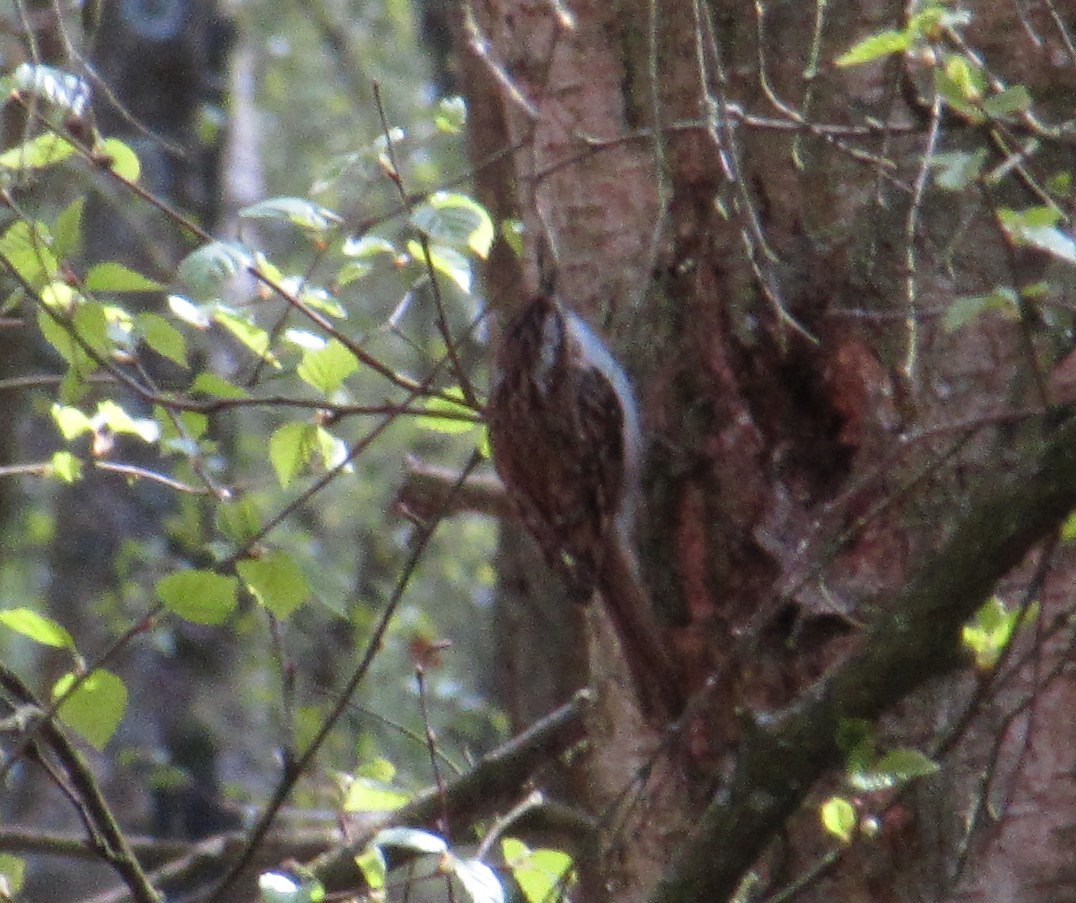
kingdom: Animalia
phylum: Chordata
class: Aves
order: Passeriformes
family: Certhiidae
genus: Certhia
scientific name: Certhia familiaris
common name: Eurasian treecreeper
